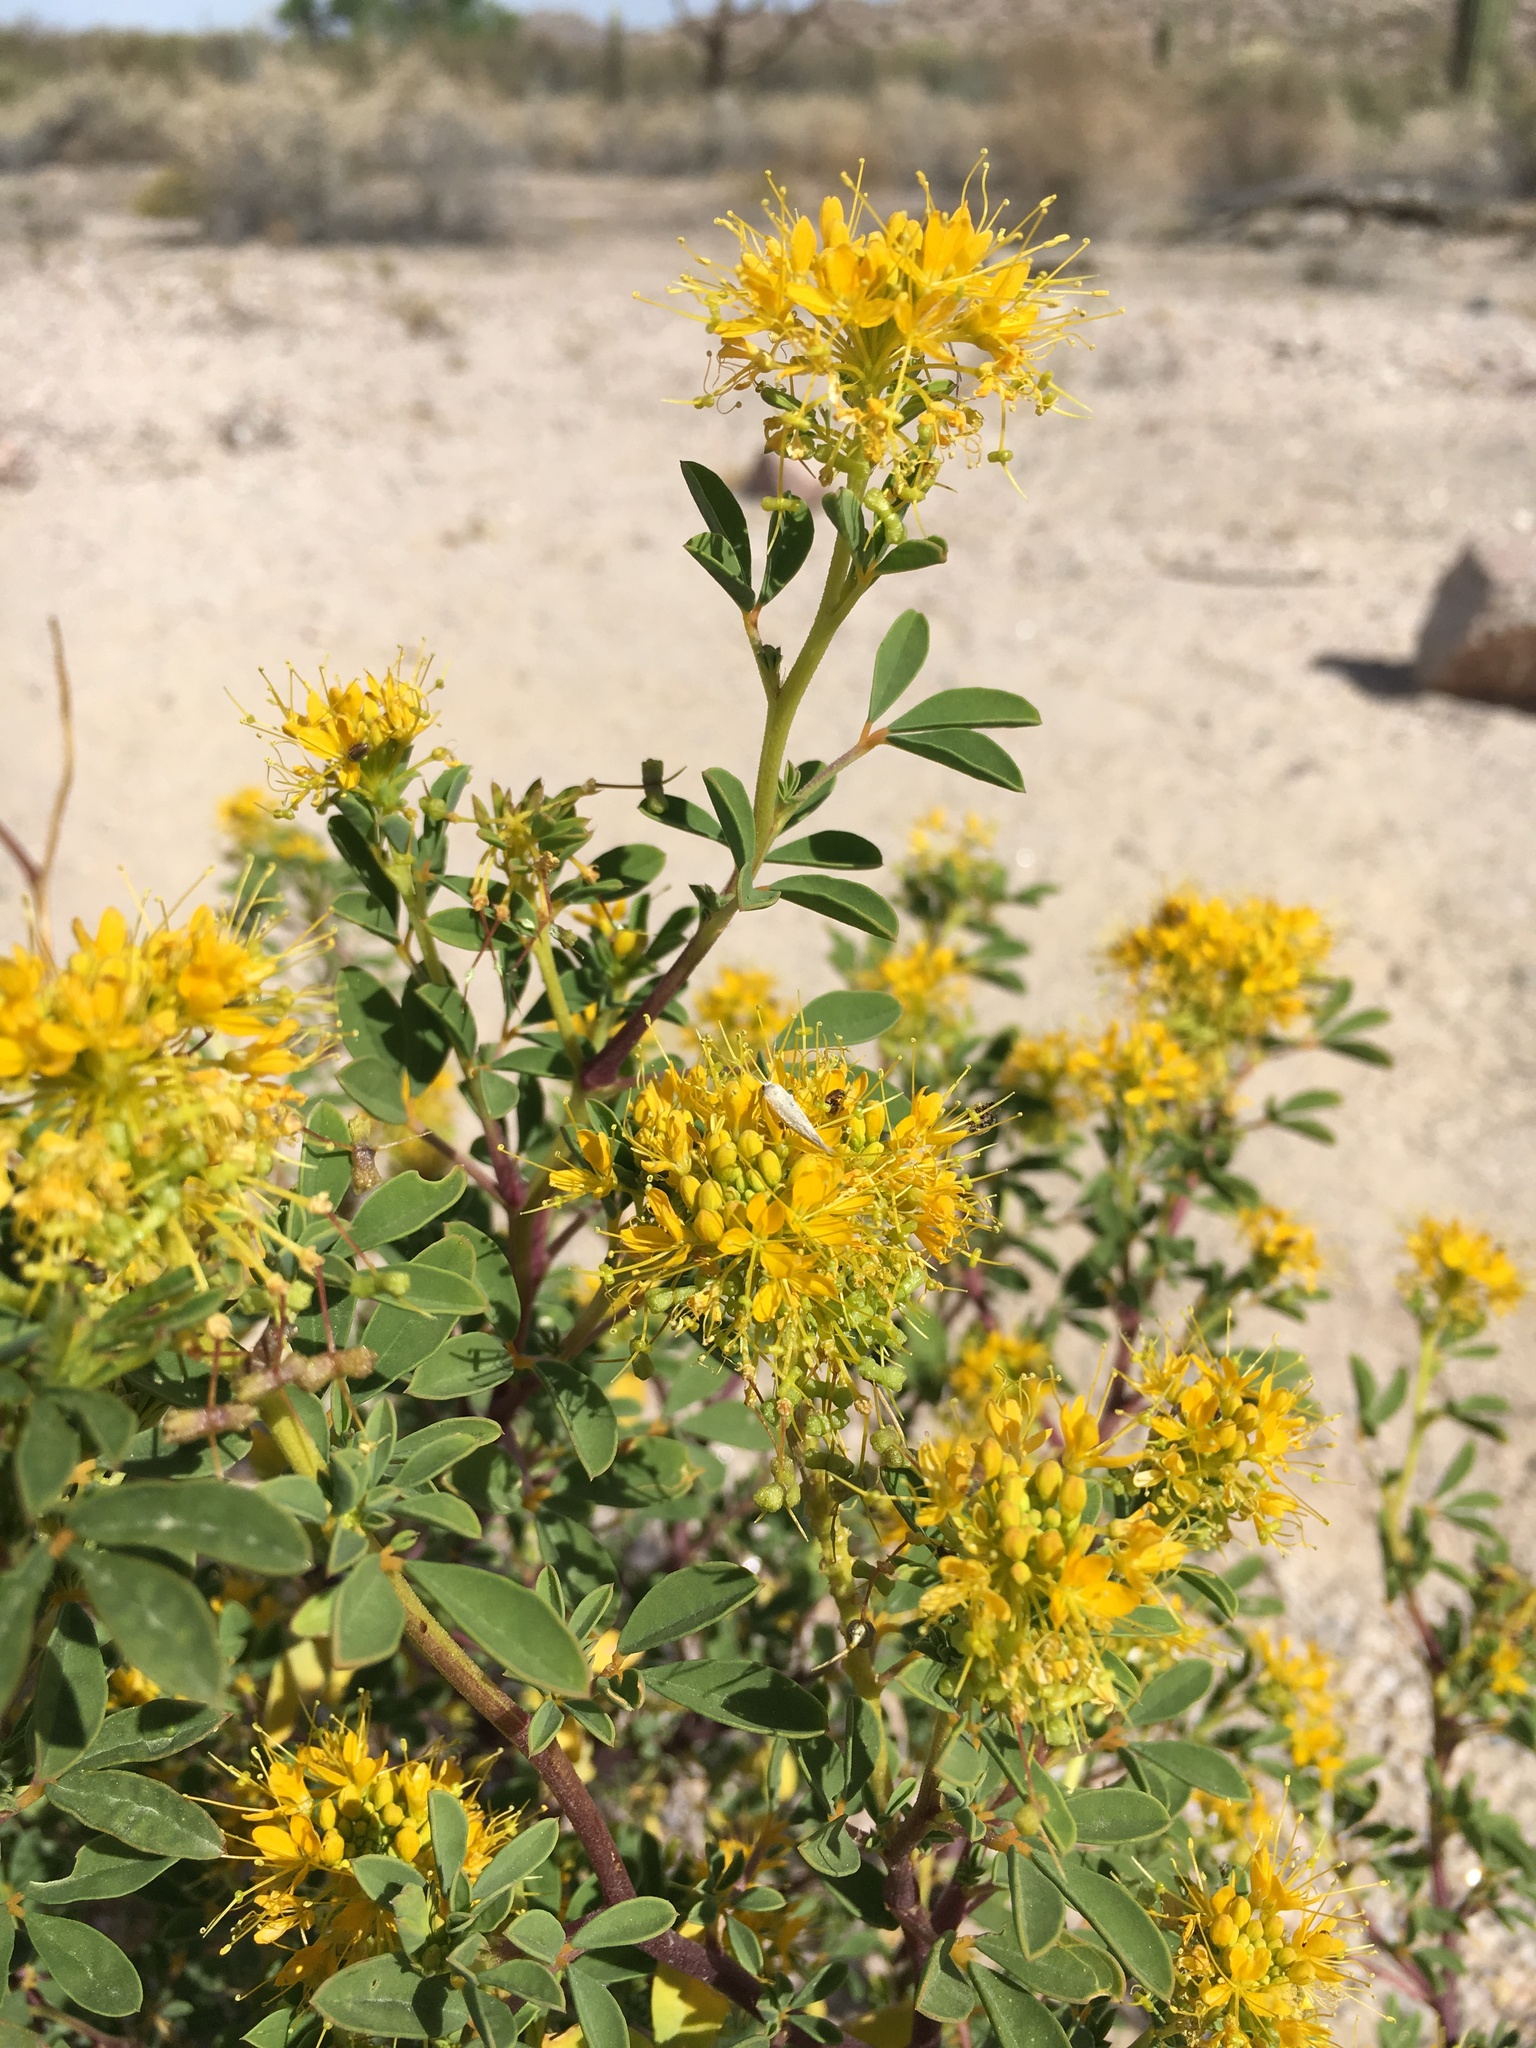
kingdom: Plantae
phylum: Tracheophyta
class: Magnoliopsida
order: Brassicales
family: Cleomaceae
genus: Cleomella
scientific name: Cleomella refracta
